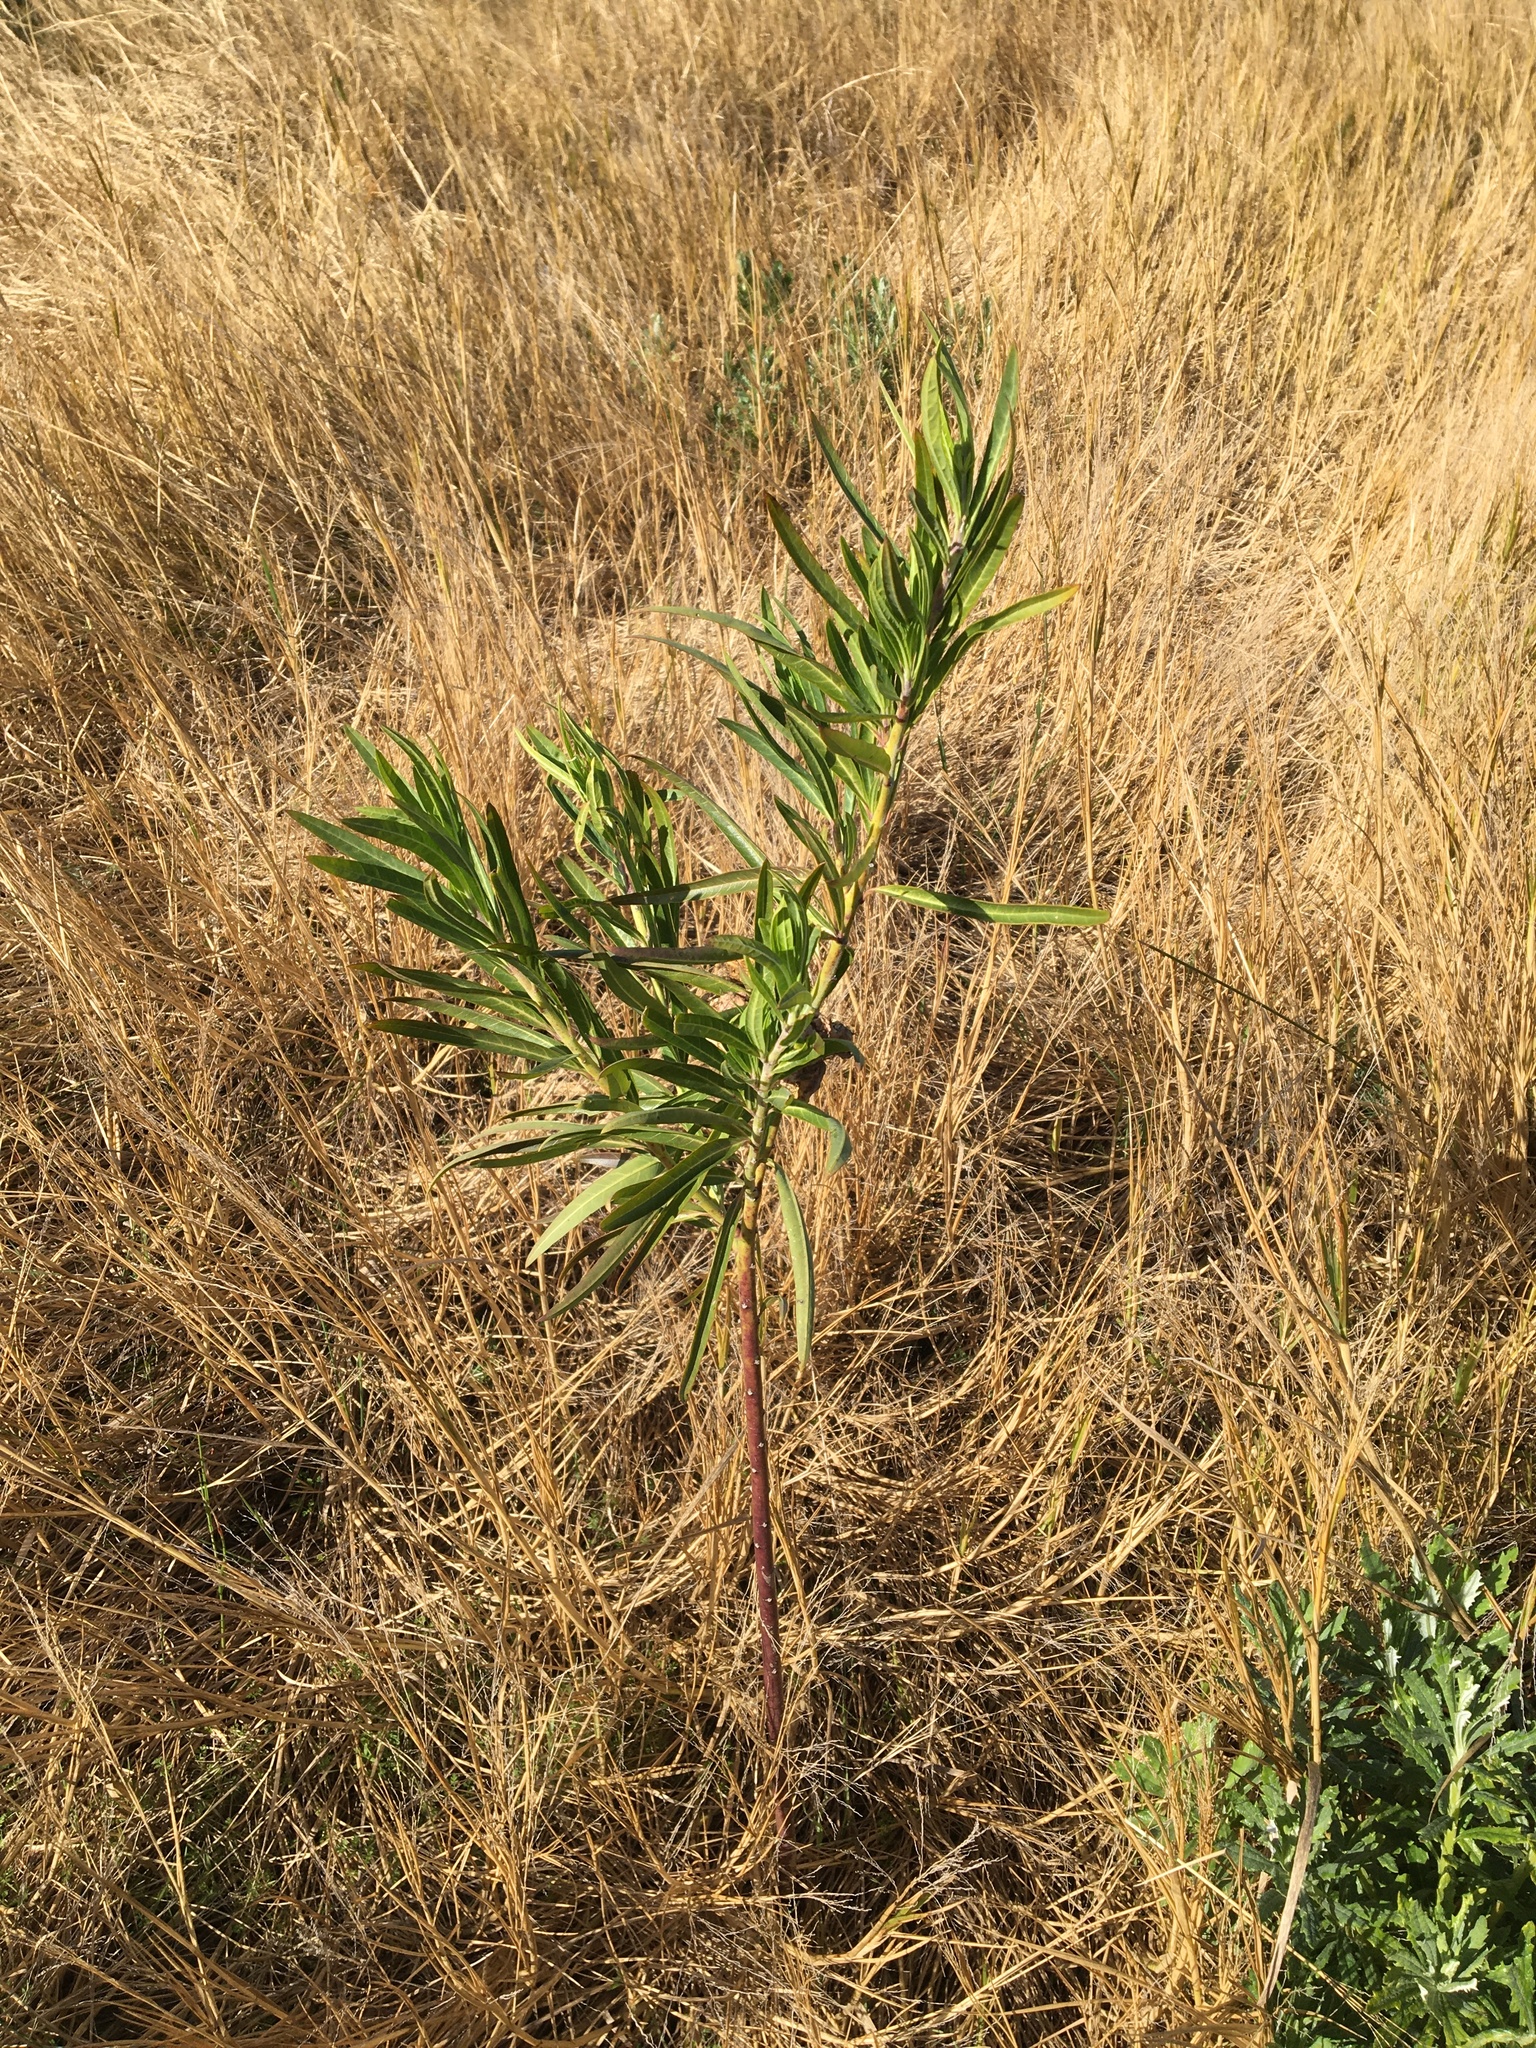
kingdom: Plantae
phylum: Tracheophyta
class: Magnoliopsida
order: Gentianales
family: Apocynaceae
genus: Gomphocarpus
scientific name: Gomphocarpus physocarpus
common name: Balloon cotton bush
